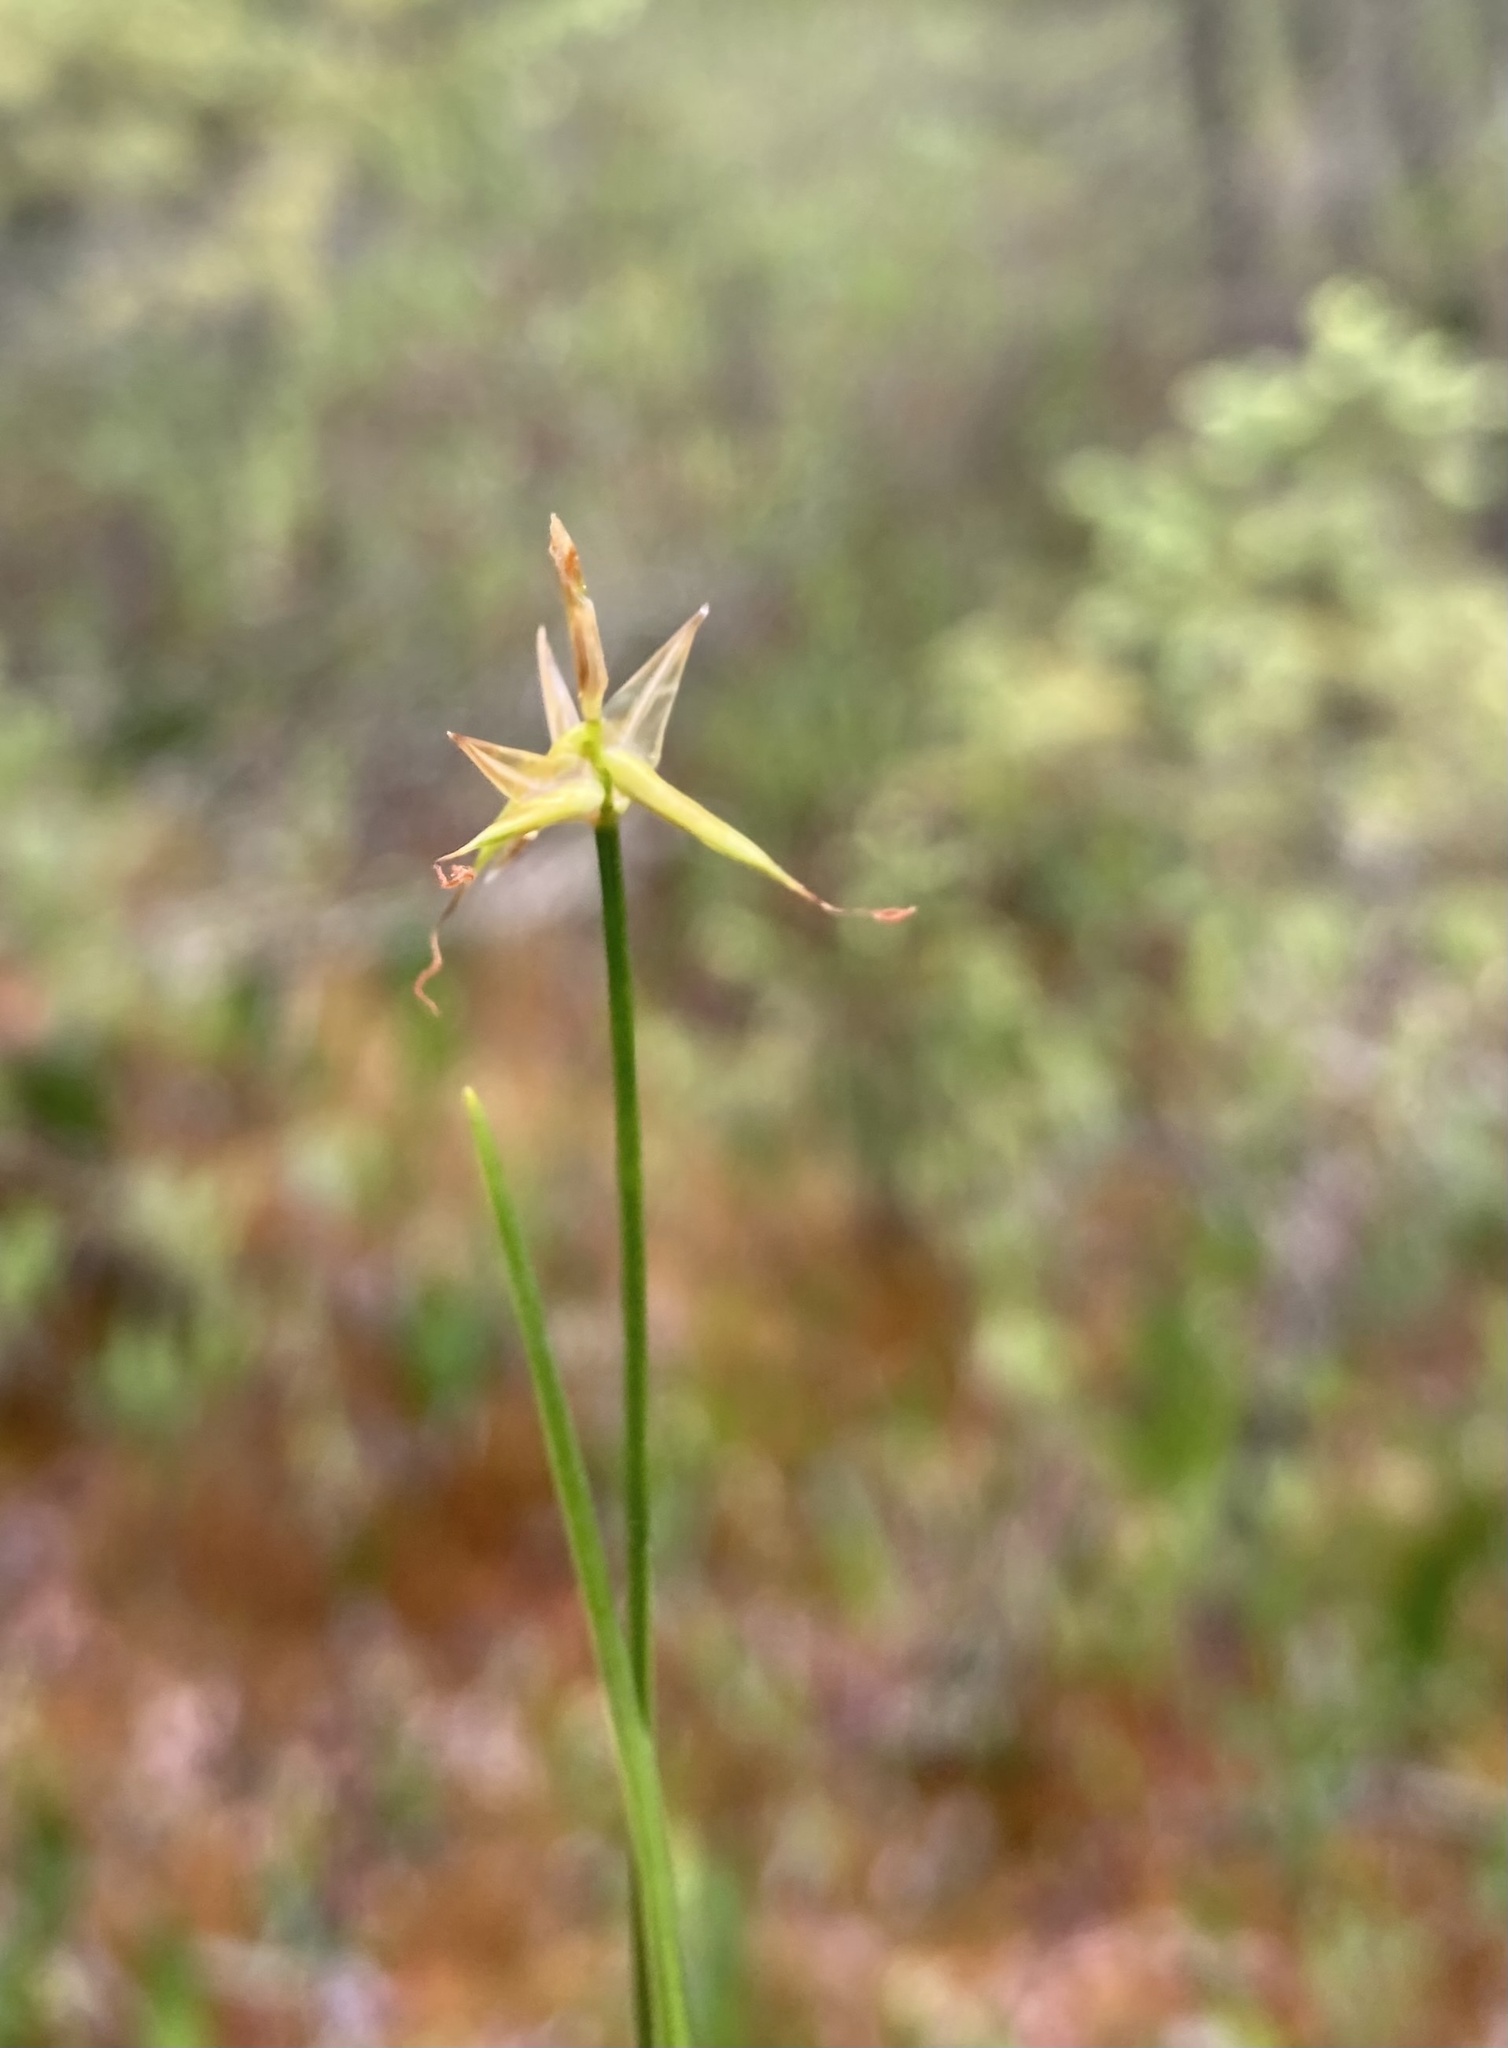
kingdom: Plantae
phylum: Tracheophyta
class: Liliopsida
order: Poales
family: Cyperaceae
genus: Carex
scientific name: Carex pauciflora
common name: Few-flowered sedge
